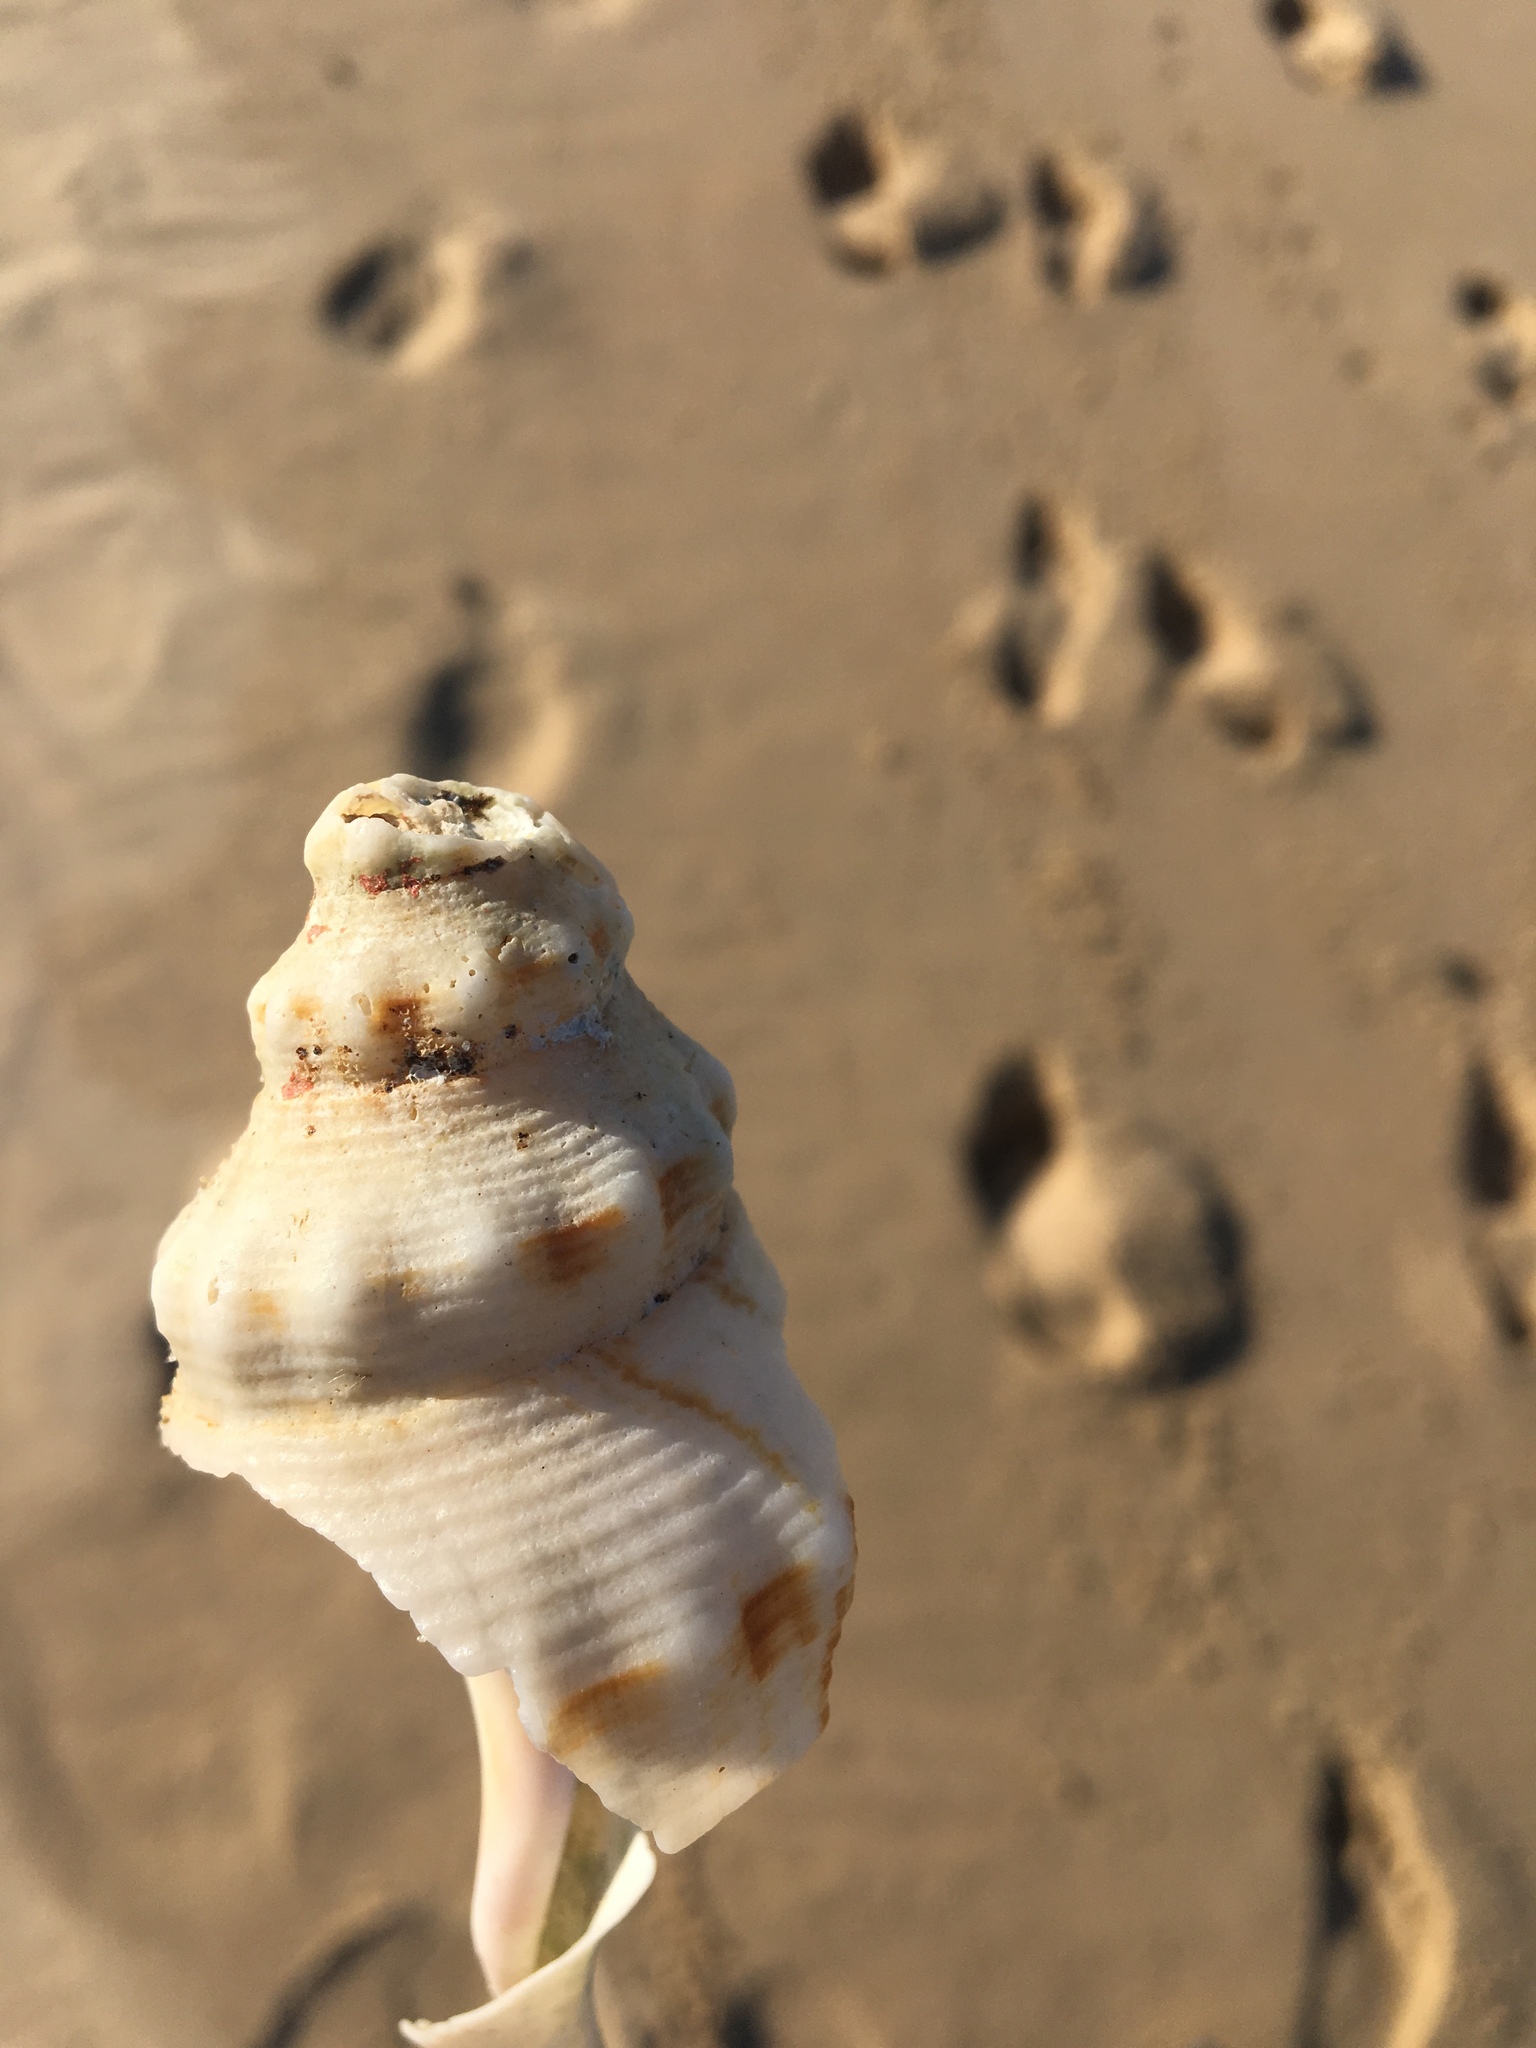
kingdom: Animalia
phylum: Mollusca
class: Gastropoda
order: Neogastropoda
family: Austrosiphonidae
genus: Penion
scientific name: Penion maximus
